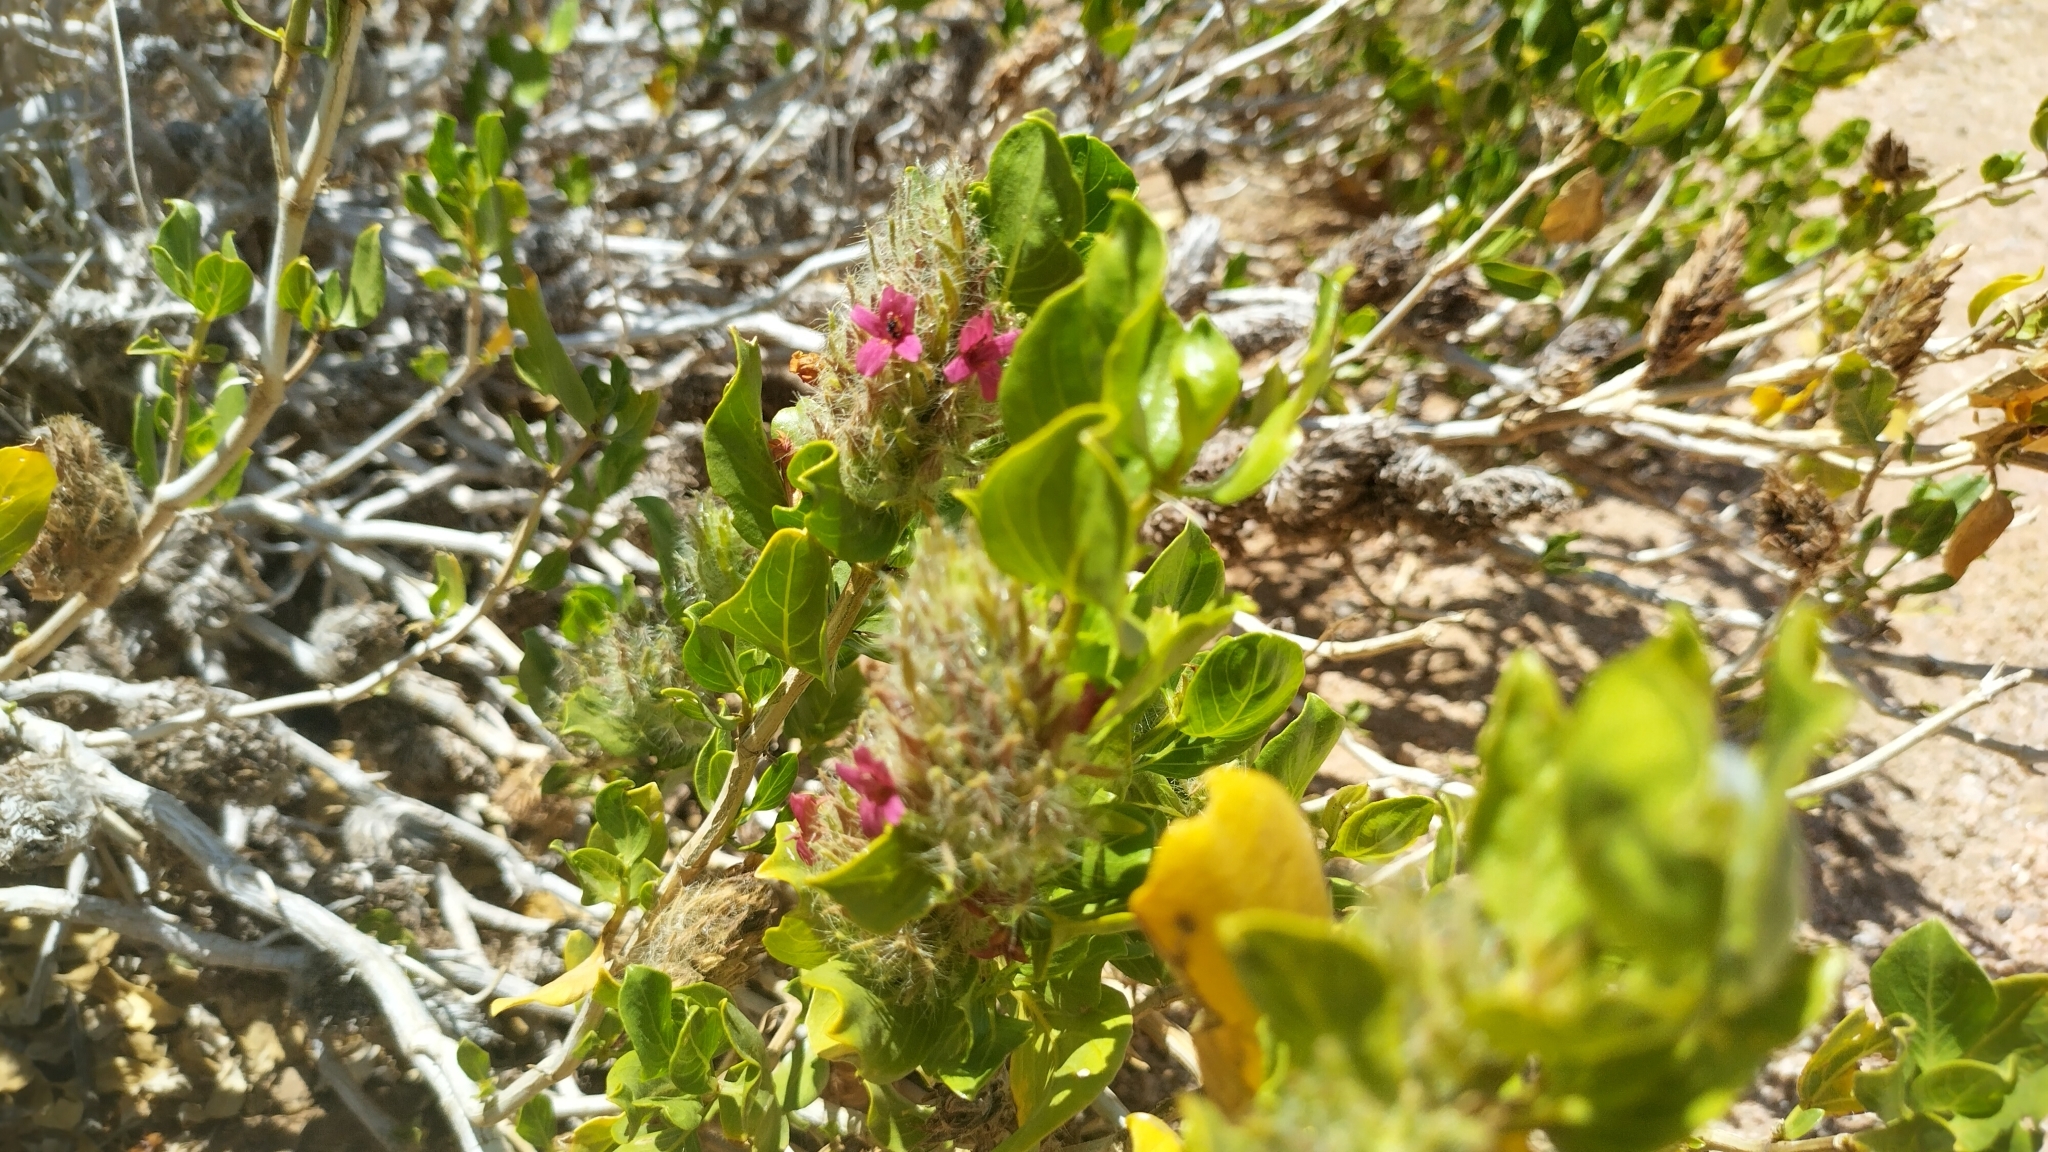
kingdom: Plantae
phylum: Tracheophyta
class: Magnoliopsida
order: Lamiales
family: Acanthaceae
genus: Petalidium
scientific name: Petalidium setosum
